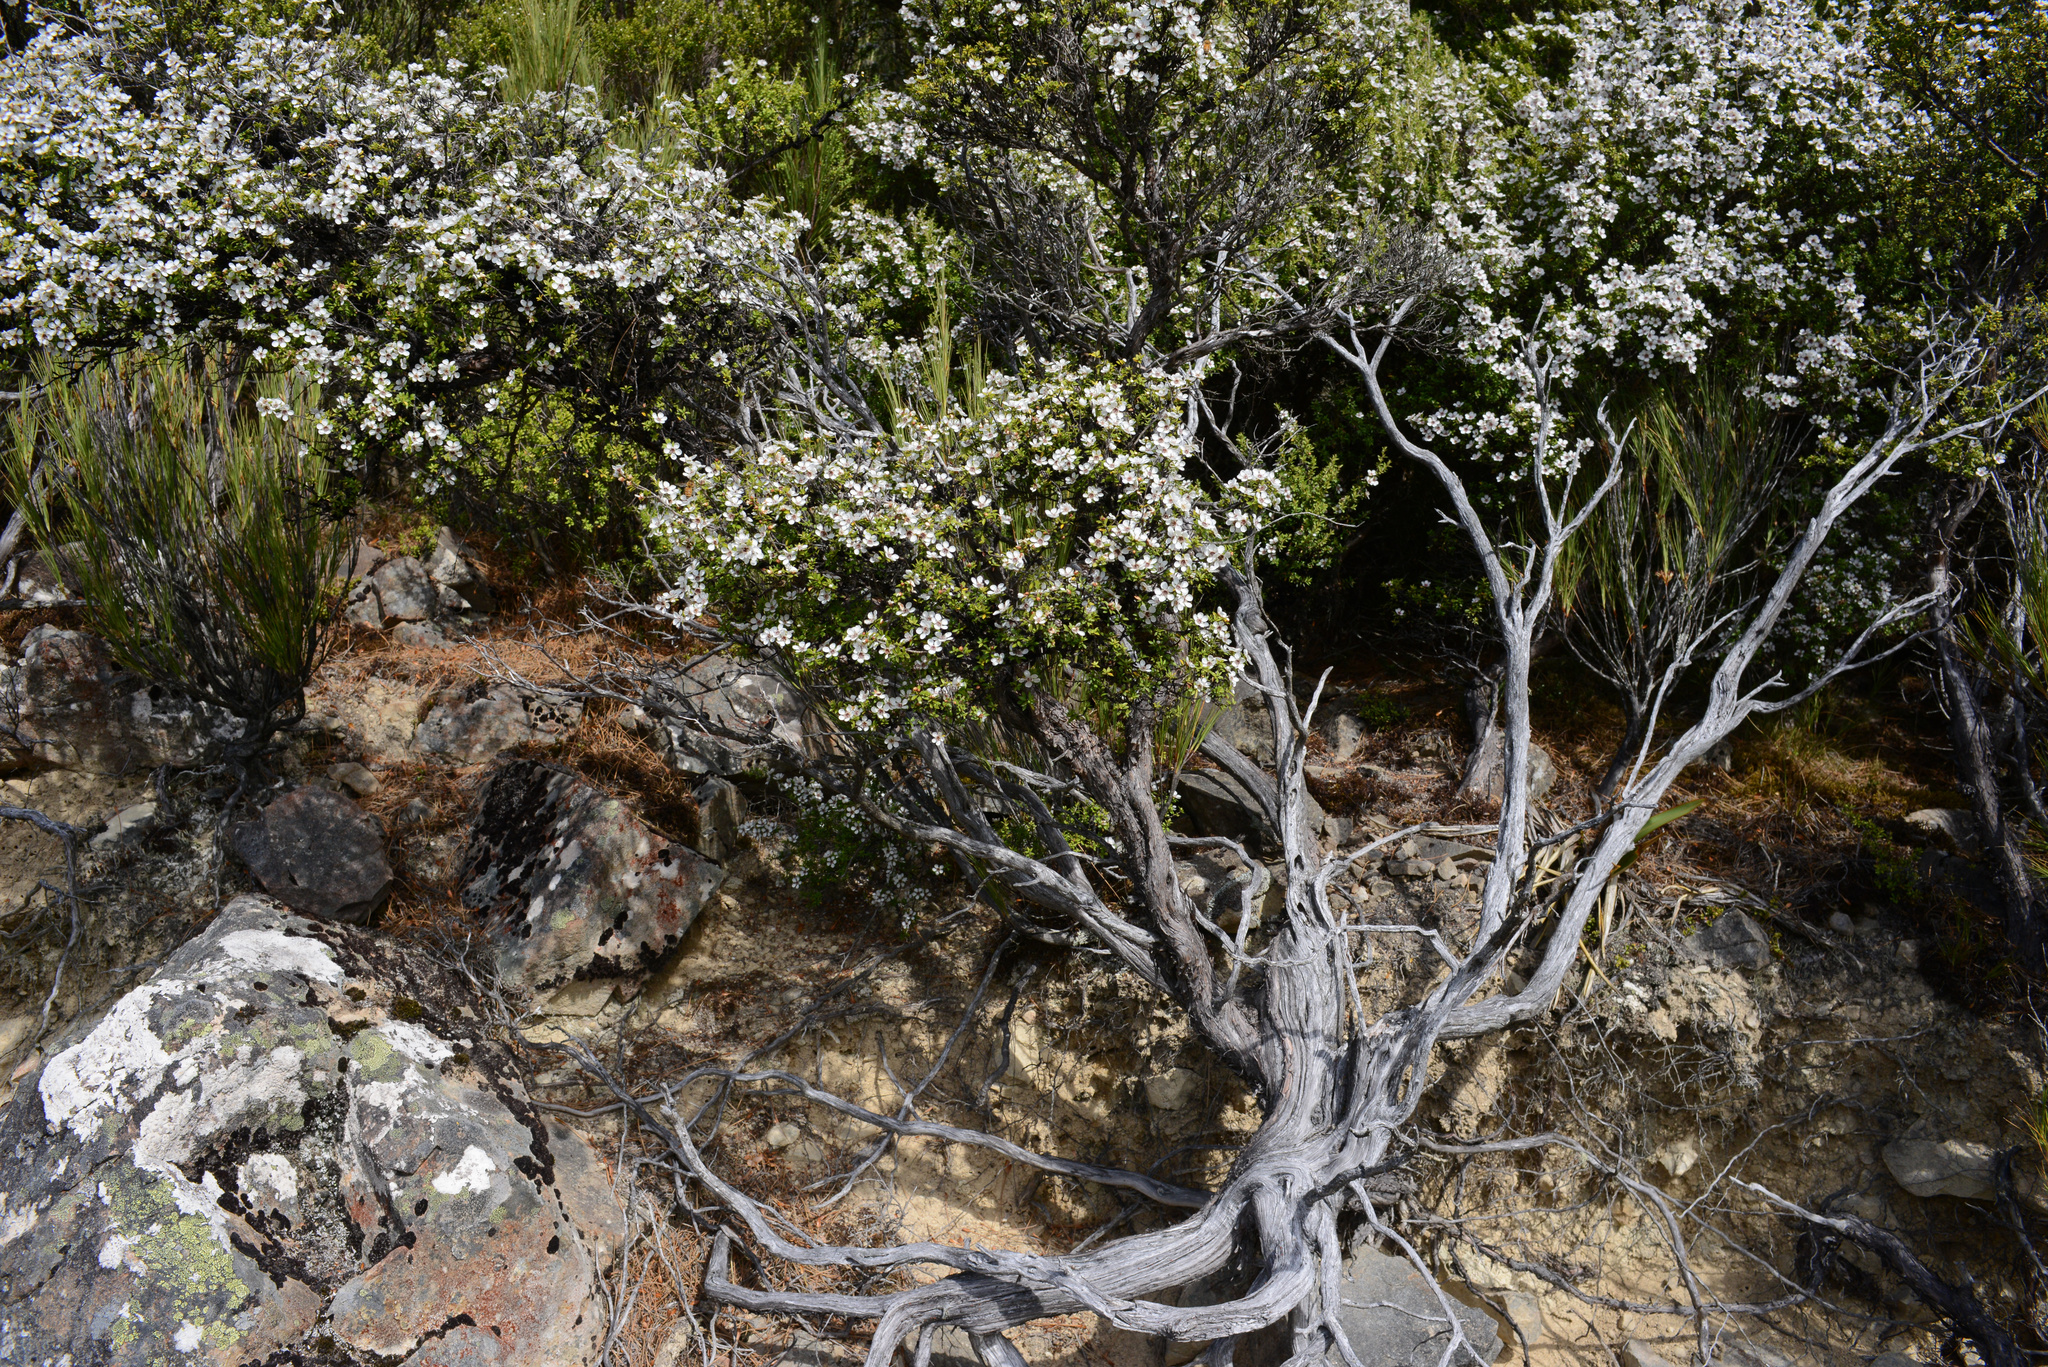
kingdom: Plantae
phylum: Tracheophyta
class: Magnoliopsida
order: Myrtales
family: Myrtaceae
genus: Leptospermum
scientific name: Leptospermum scoparium
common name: Broom tea-tree
